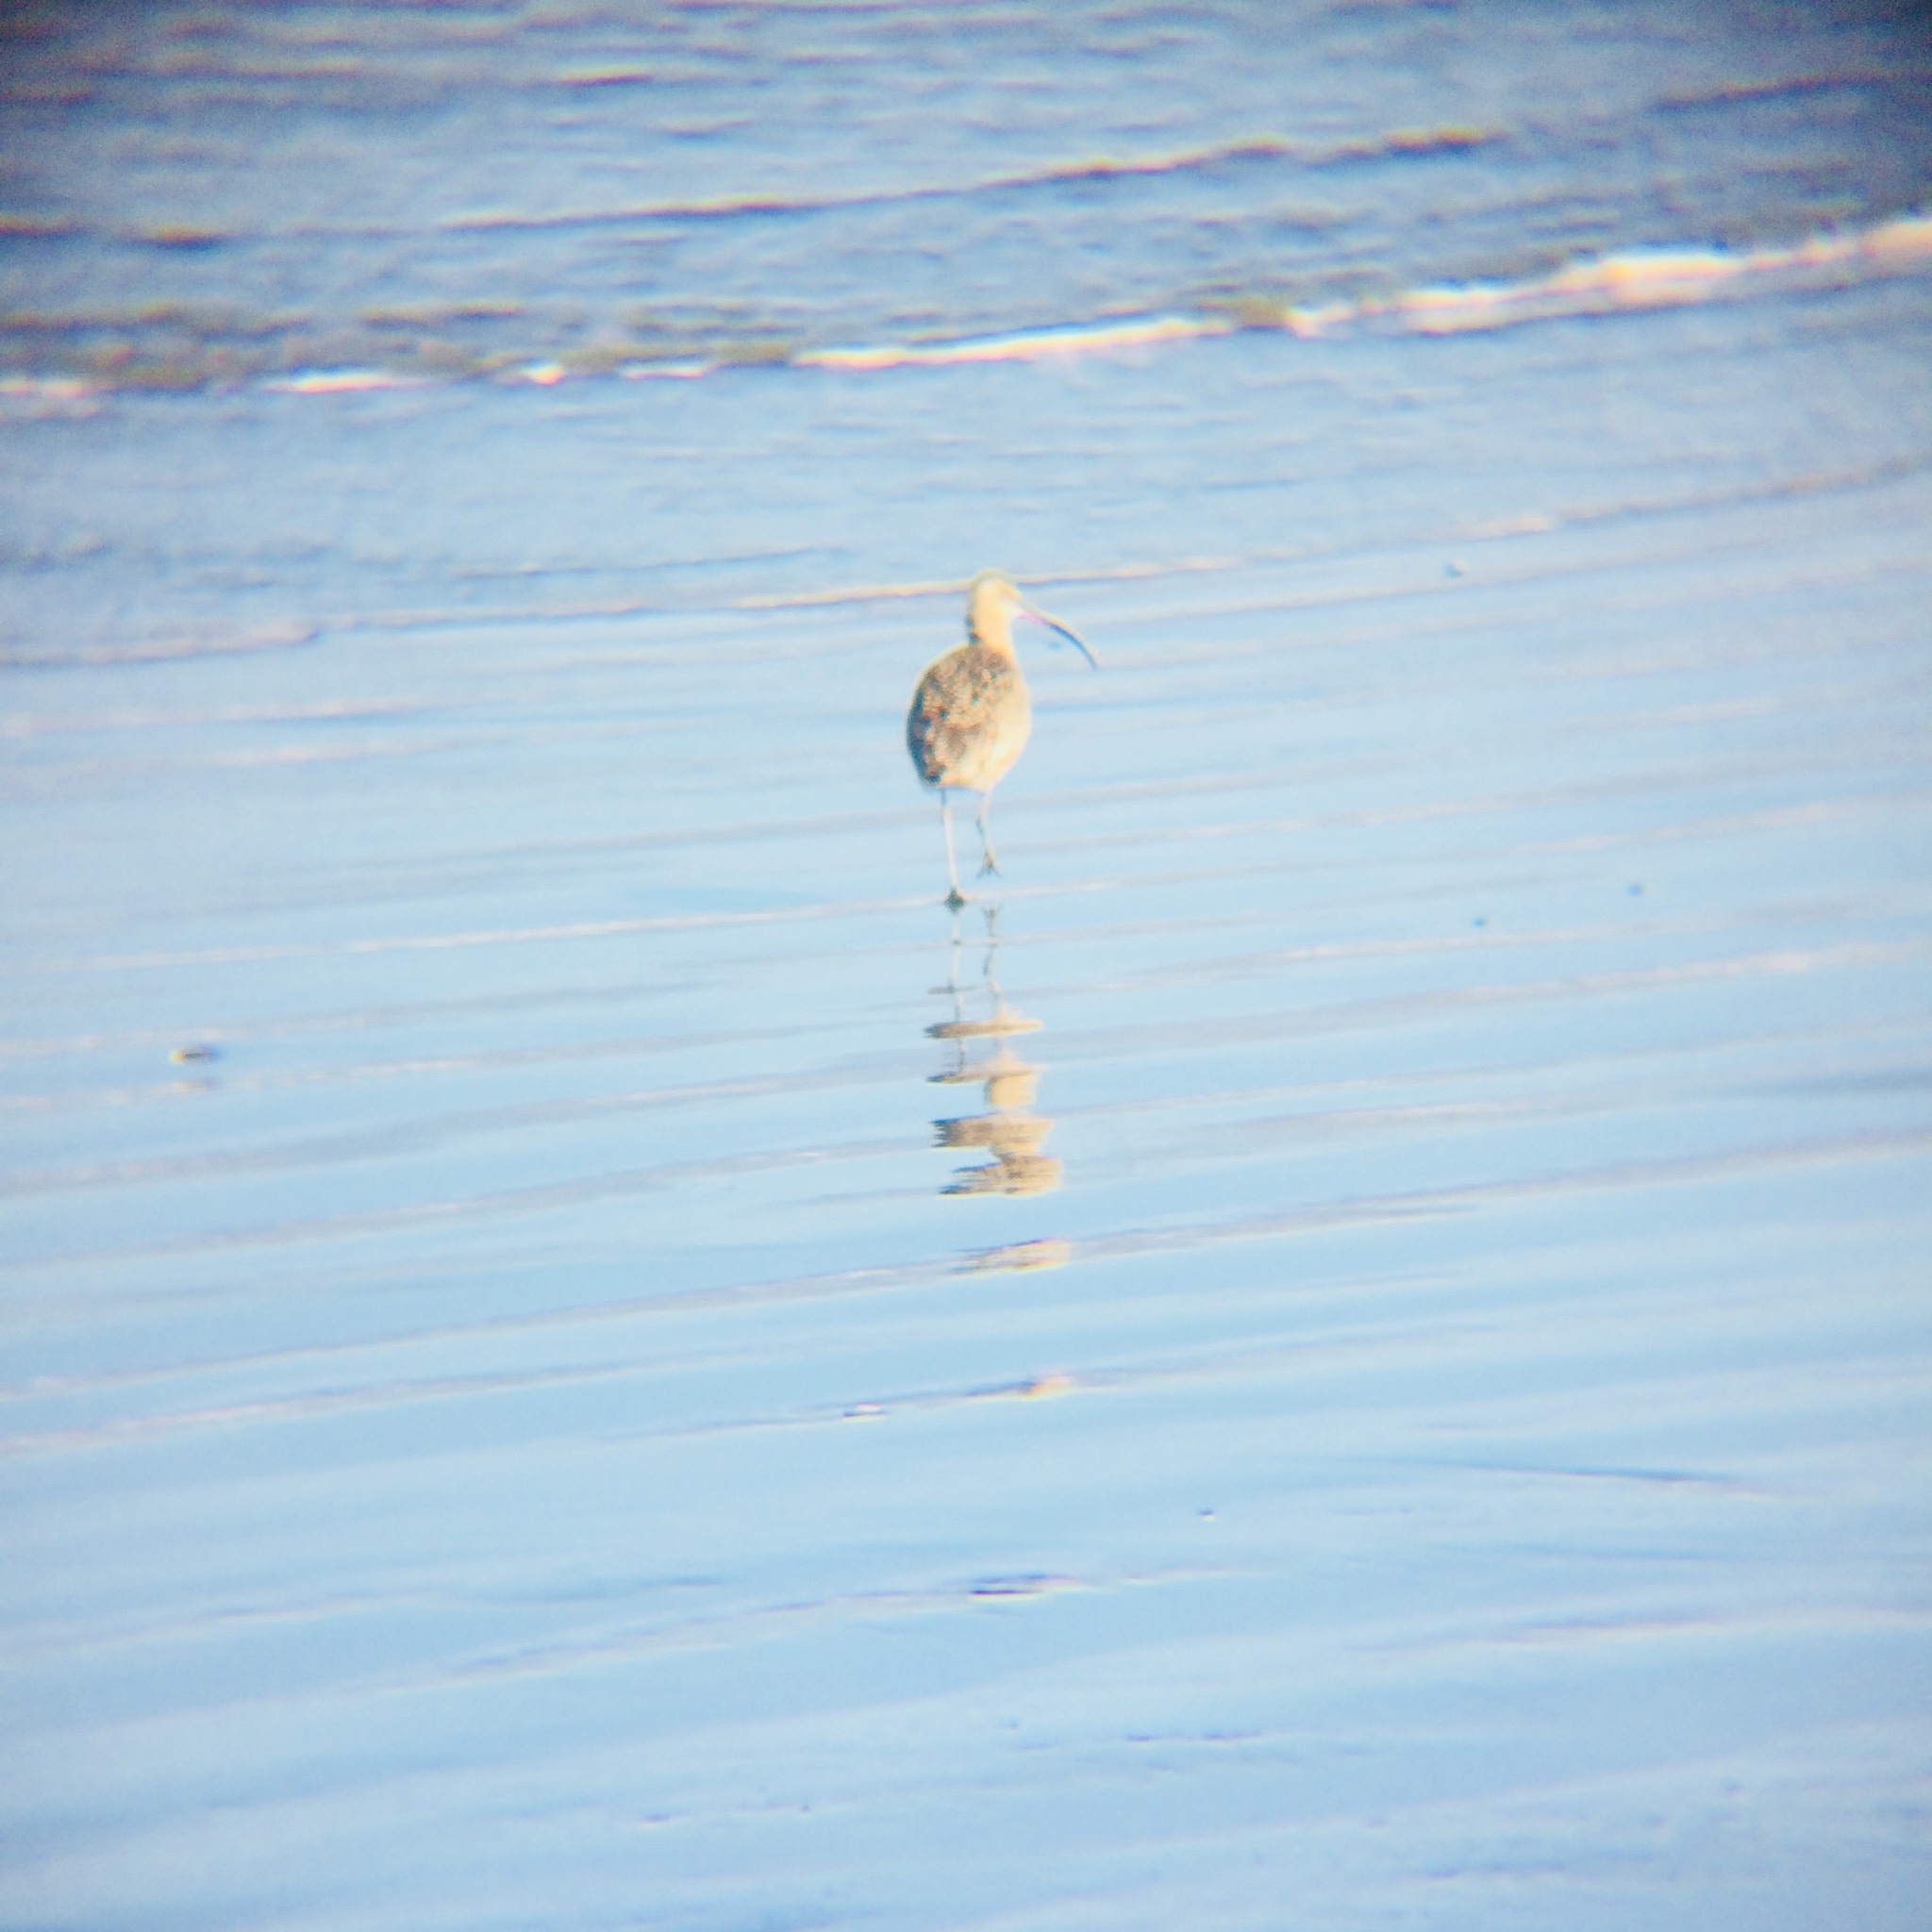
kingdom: Animalia
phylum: Chordata
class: Aves
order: Charadriiformes
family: Scolopacidae
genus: Numenius
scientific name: Numenius americanus
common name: Long-billed curlew
